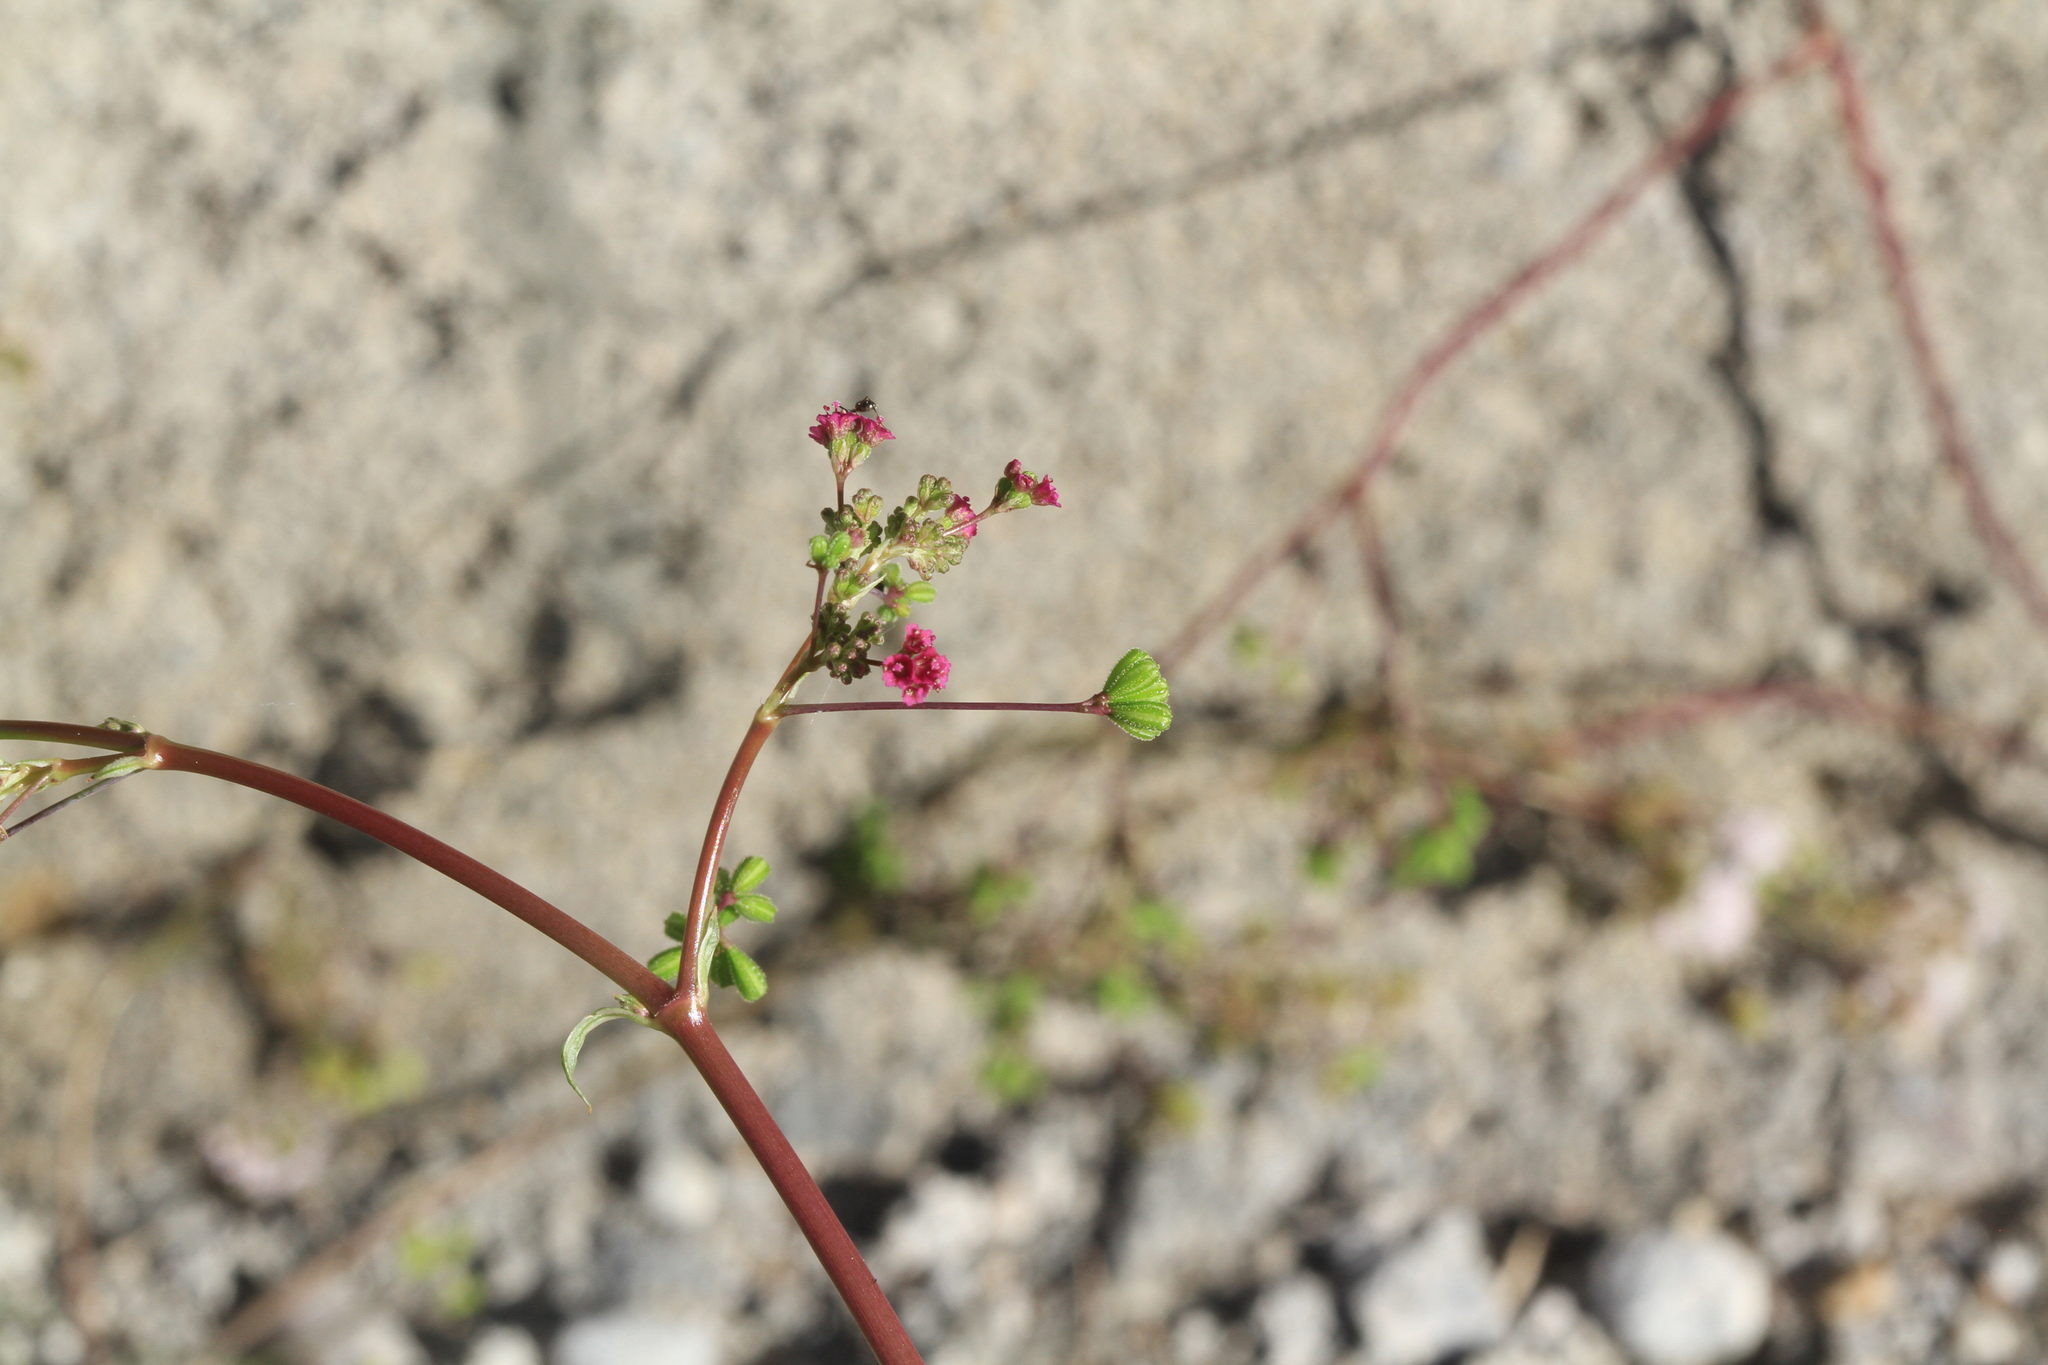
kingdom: Plantae
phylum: Tracheophyta
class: Magnoliopsida
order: Caryophyllales
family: Nyctaginaceae
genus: Boerhavia
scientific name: Boerhavia coccinea
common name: Scarlet spiderling
